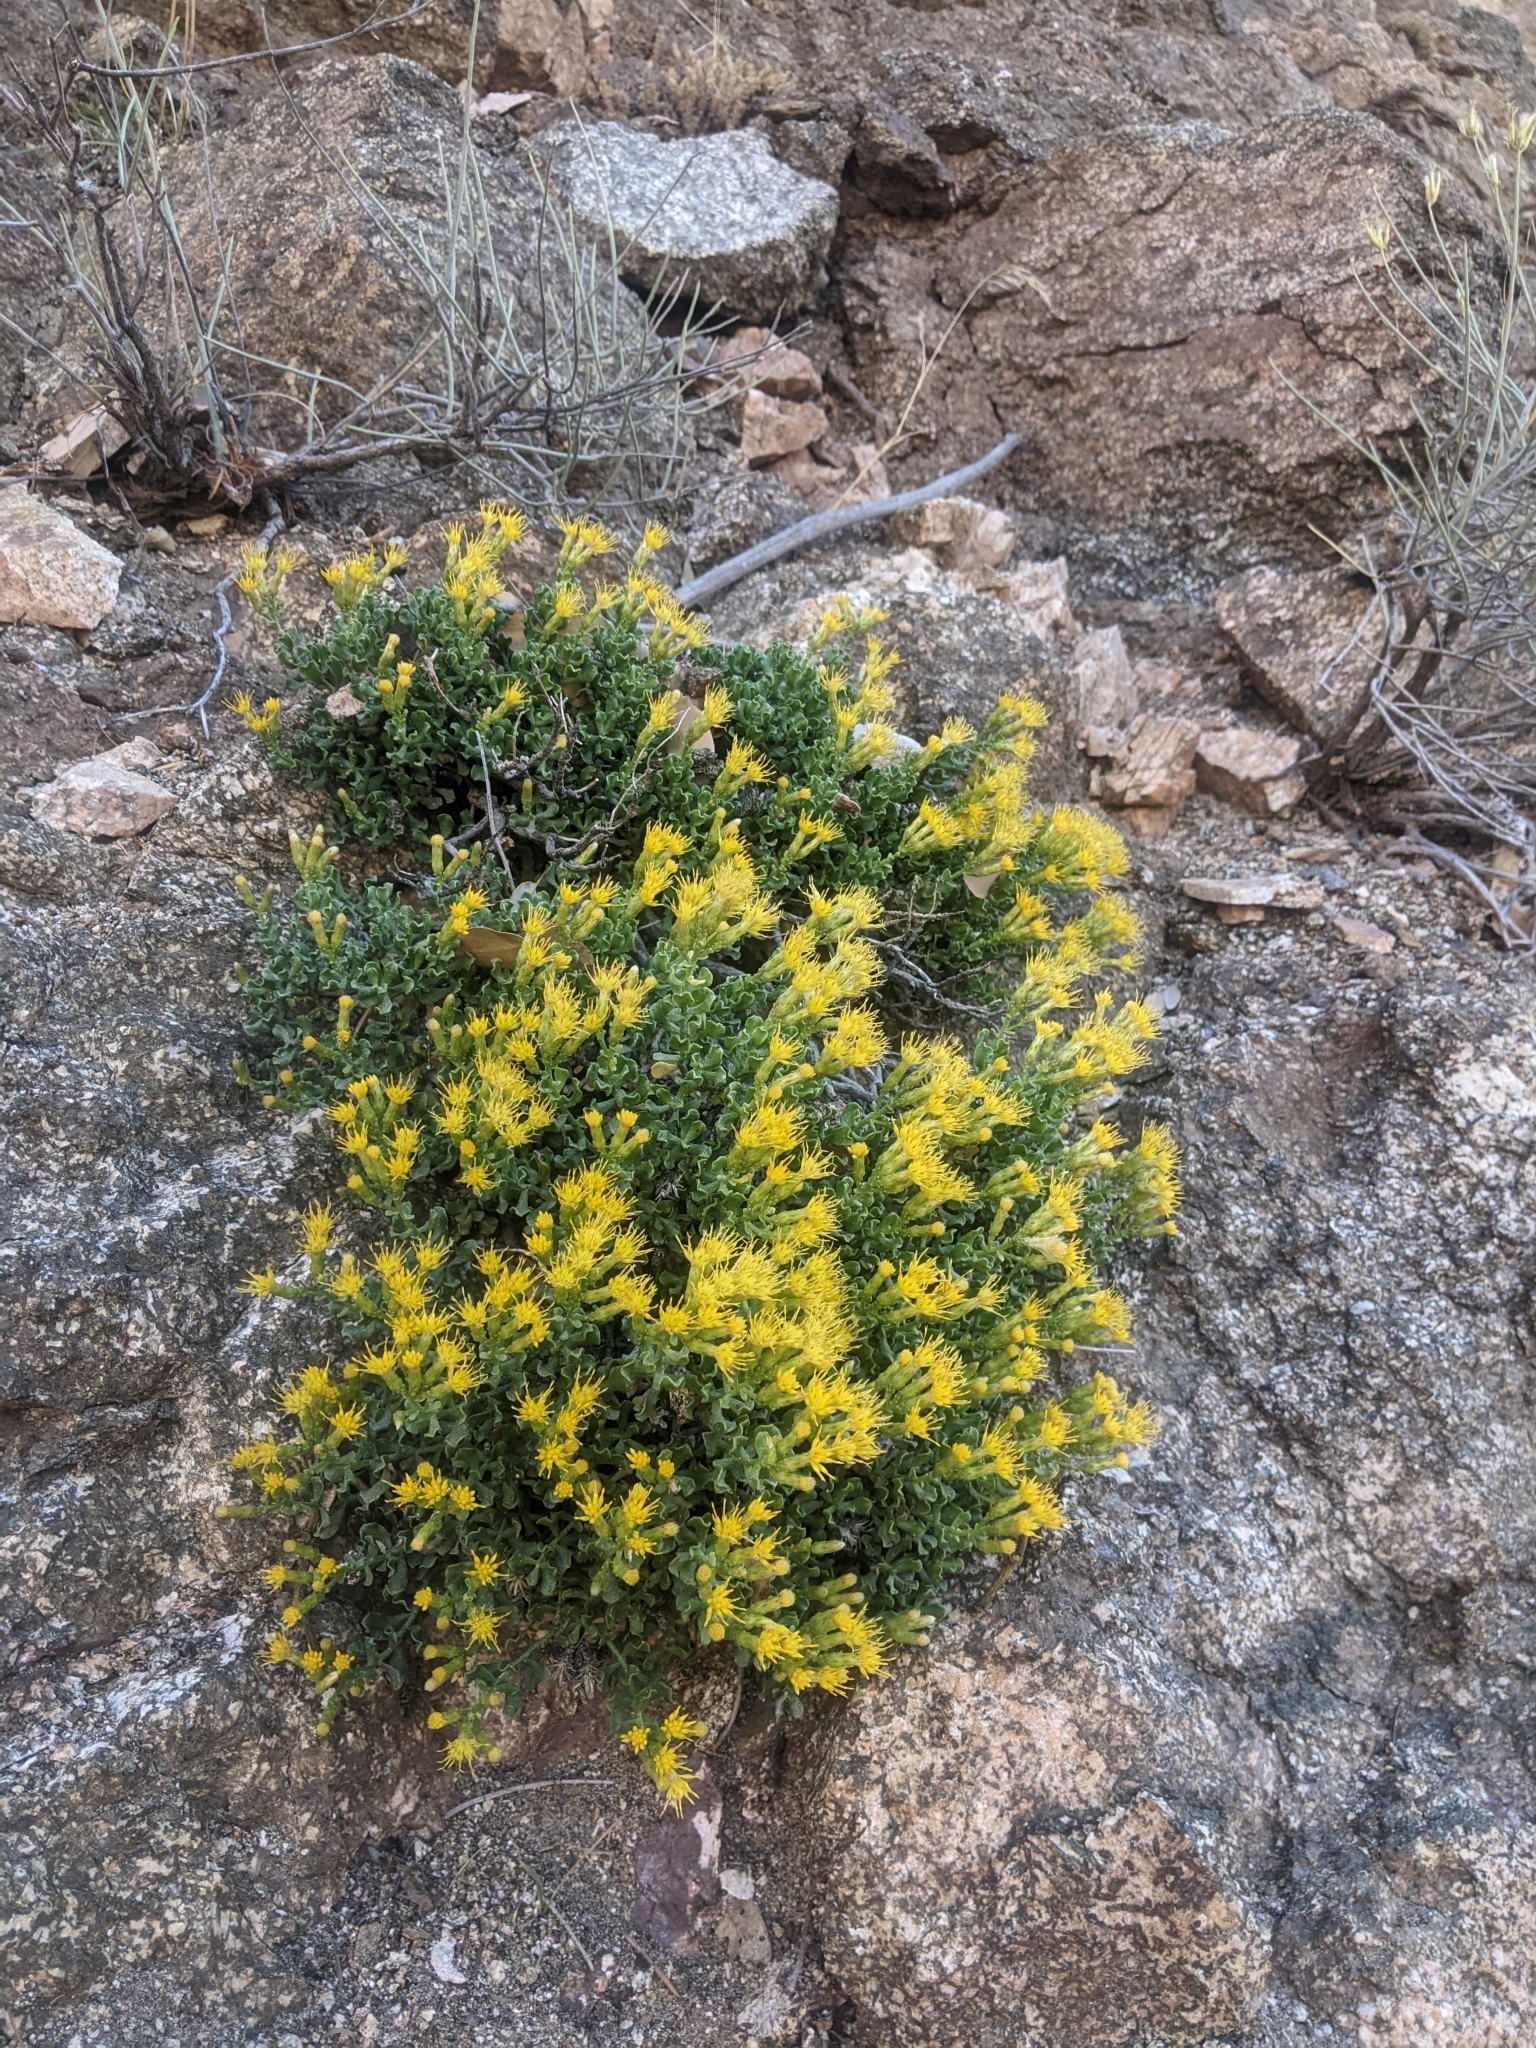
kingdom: Plantae
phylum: Tracheophyta
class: Magnoliopsida
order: Asterales
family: Asteraceae
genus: Ericameria
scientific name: Ericameria cuneata
